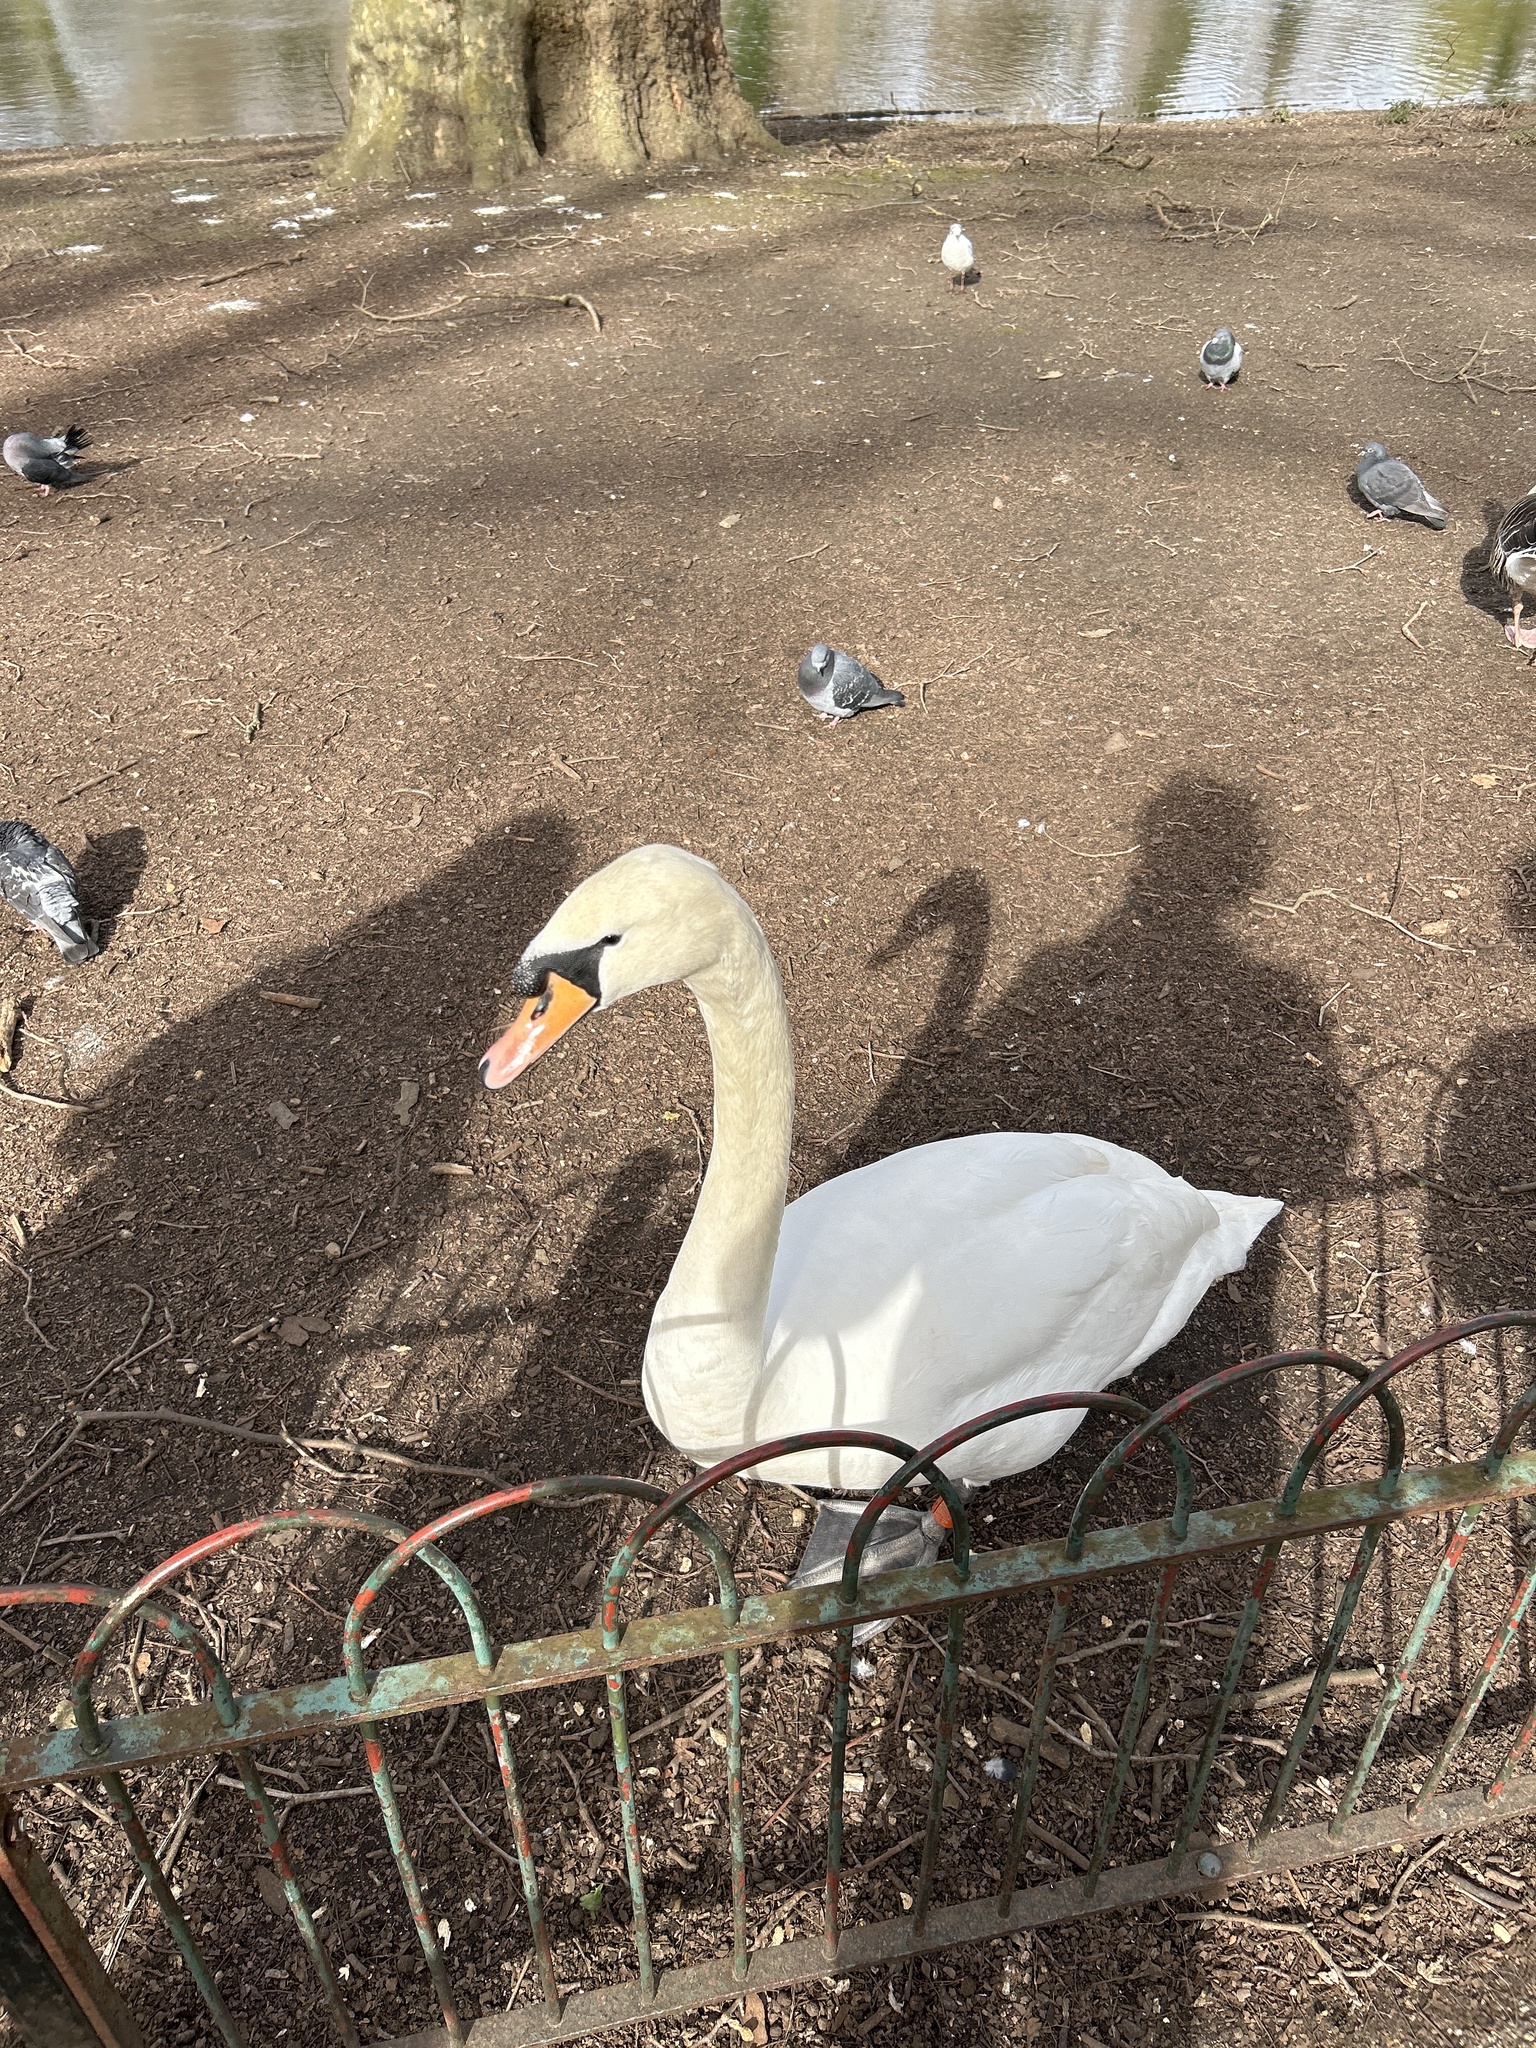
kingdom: Animalia
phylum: Chordata
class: Aves
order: Anseriformes
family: Anatidae
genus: Cygnus
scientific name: Cygnus olor
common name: Mute swan
